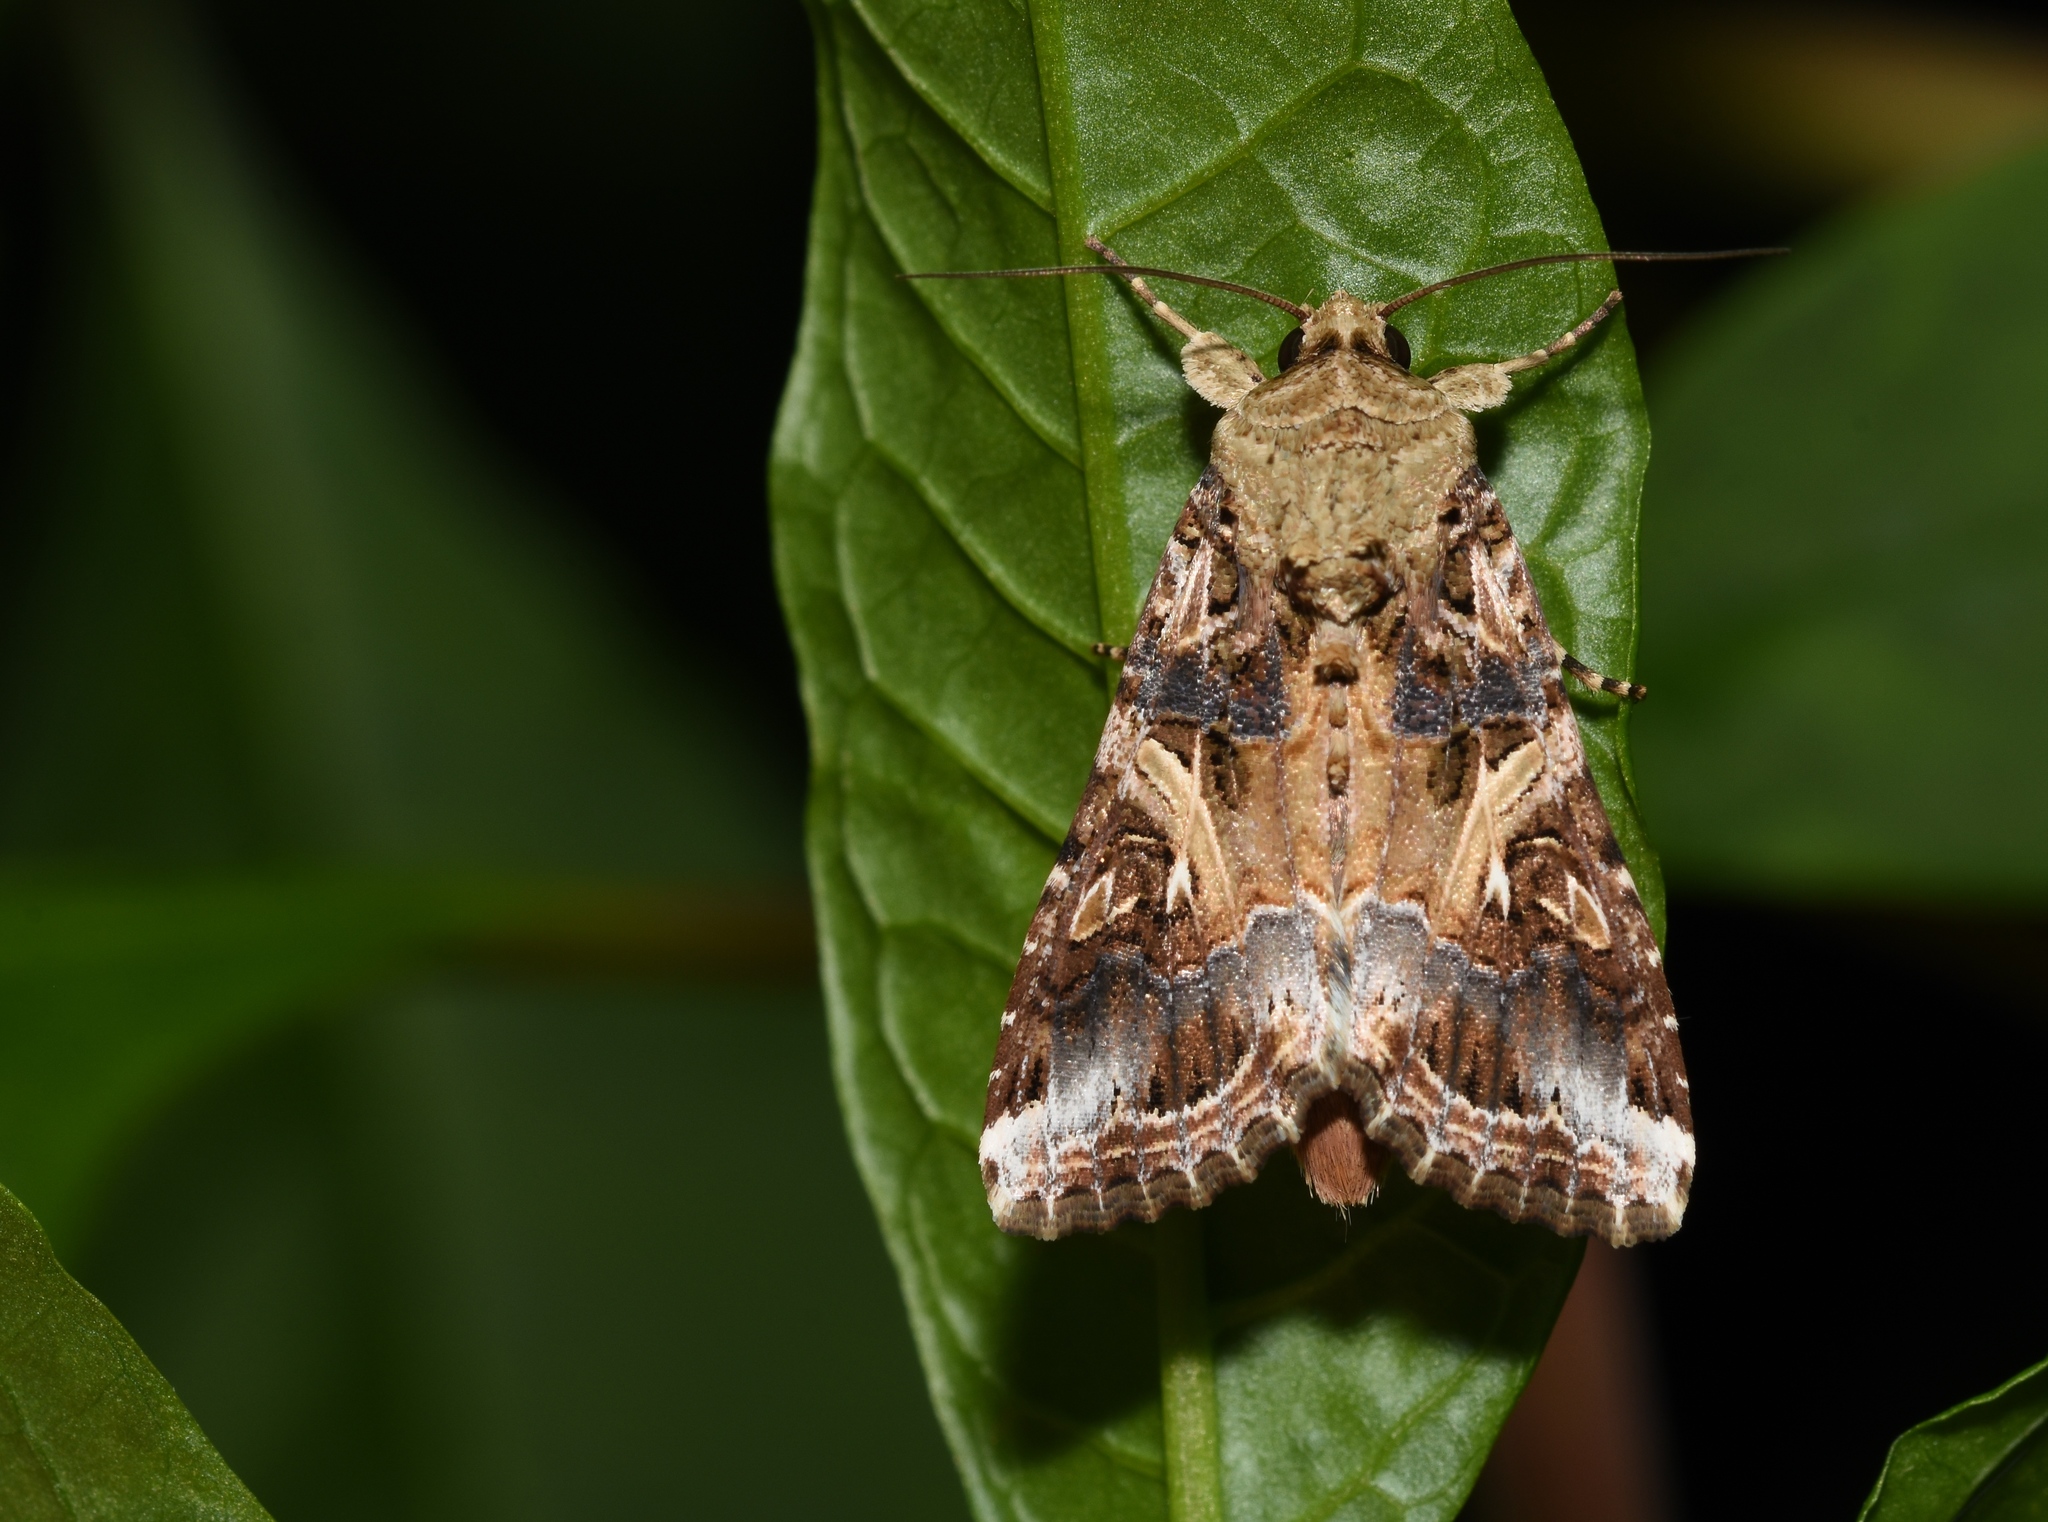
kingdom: Animalia
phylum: Arthropoda
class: Insecta
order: Lepidoptera
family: Noctuidae
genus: Spodoptera
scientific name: Spodoptera ornithogalli
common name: Yellow-striped armyworm
